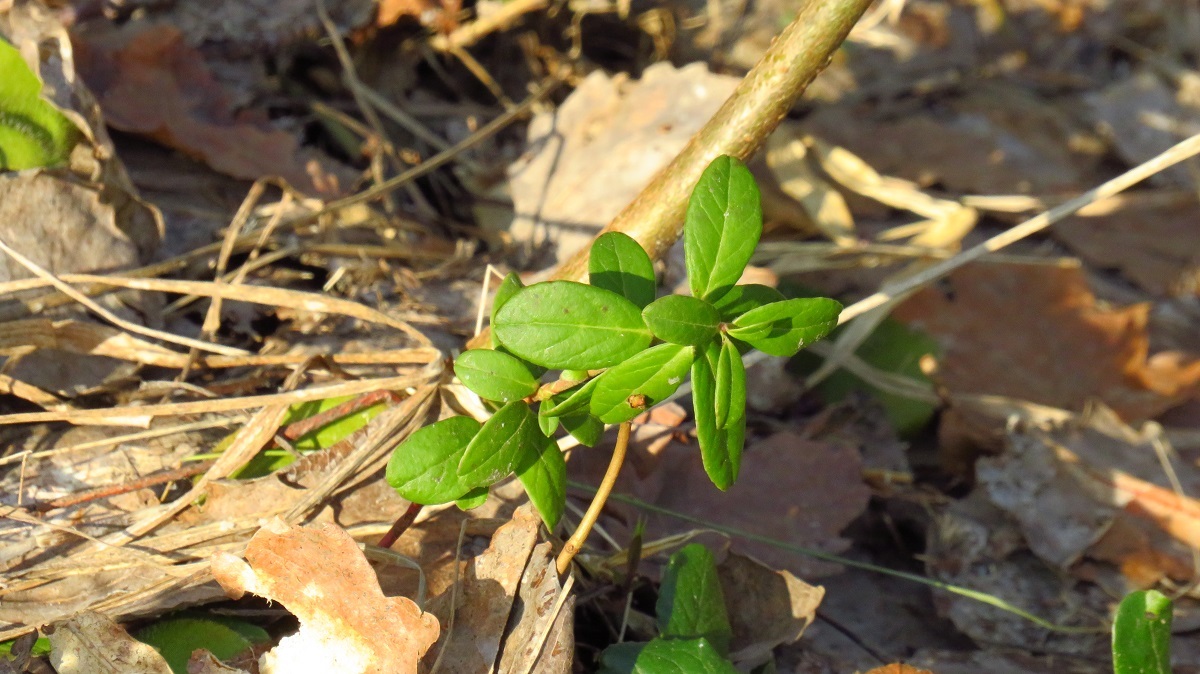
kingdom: Plantae
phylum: Tracheophyta
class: Magnoliopsida
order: Ericales
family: Ericaceae
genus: Vaccinium
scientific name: Vaccinium vitis-idaea
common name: Cowberry
